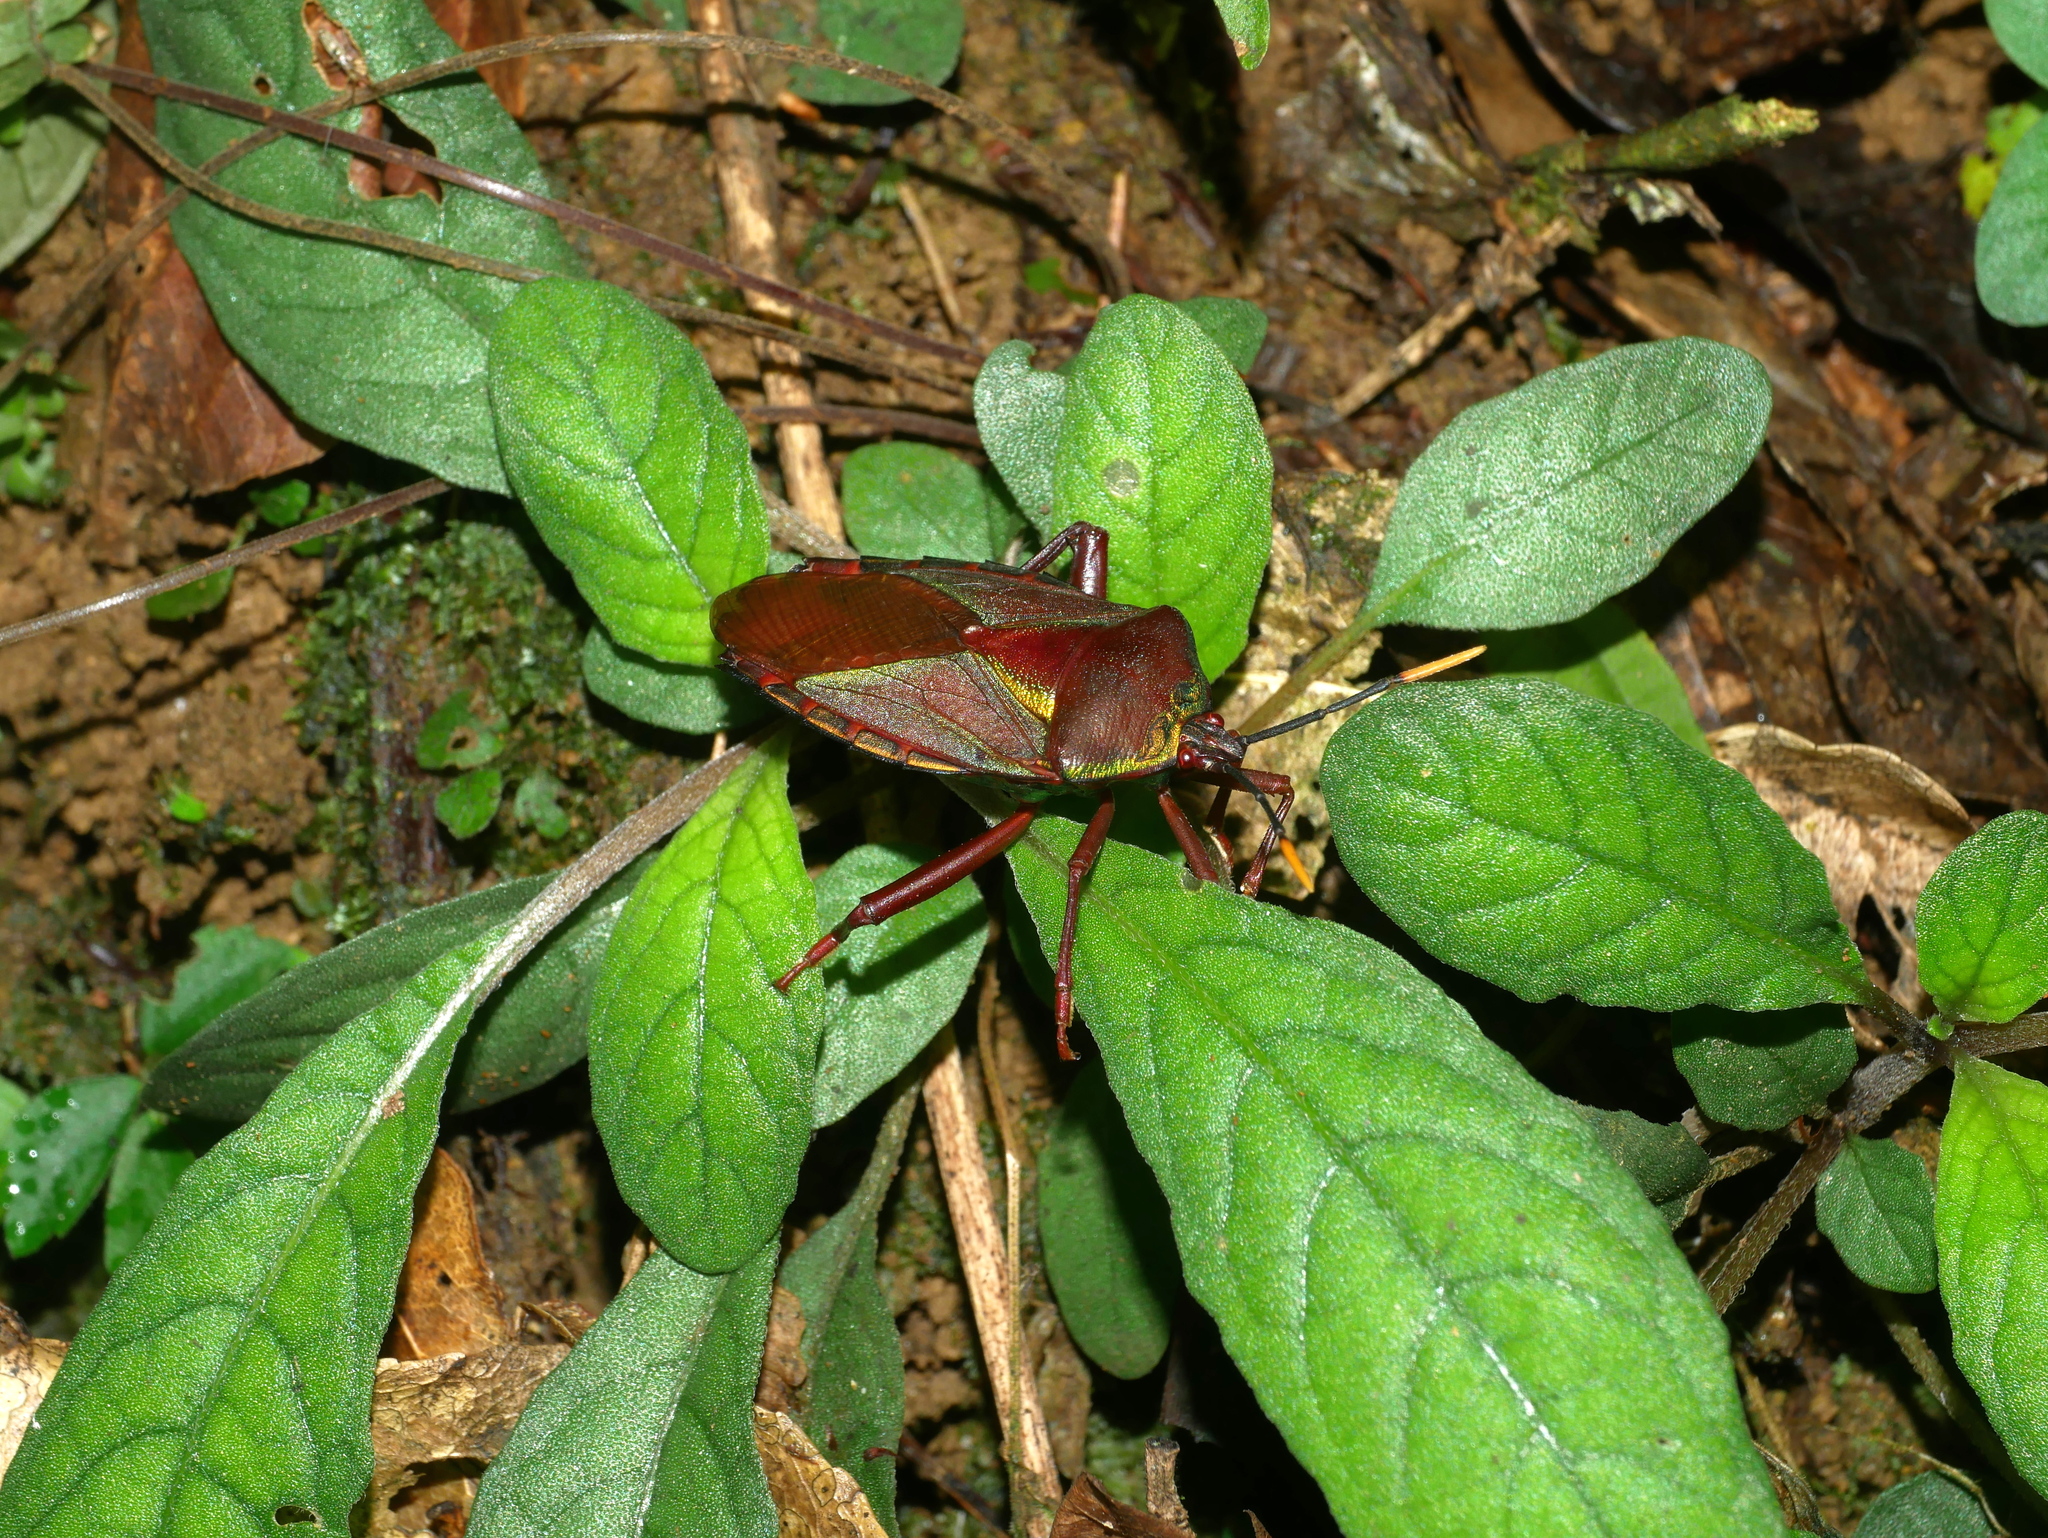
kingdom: Animalia
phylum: Arthropoda
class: Insecta
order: Hemiptera
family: Tessaratomidae
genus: Eurostus
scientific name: Eurostus validus
